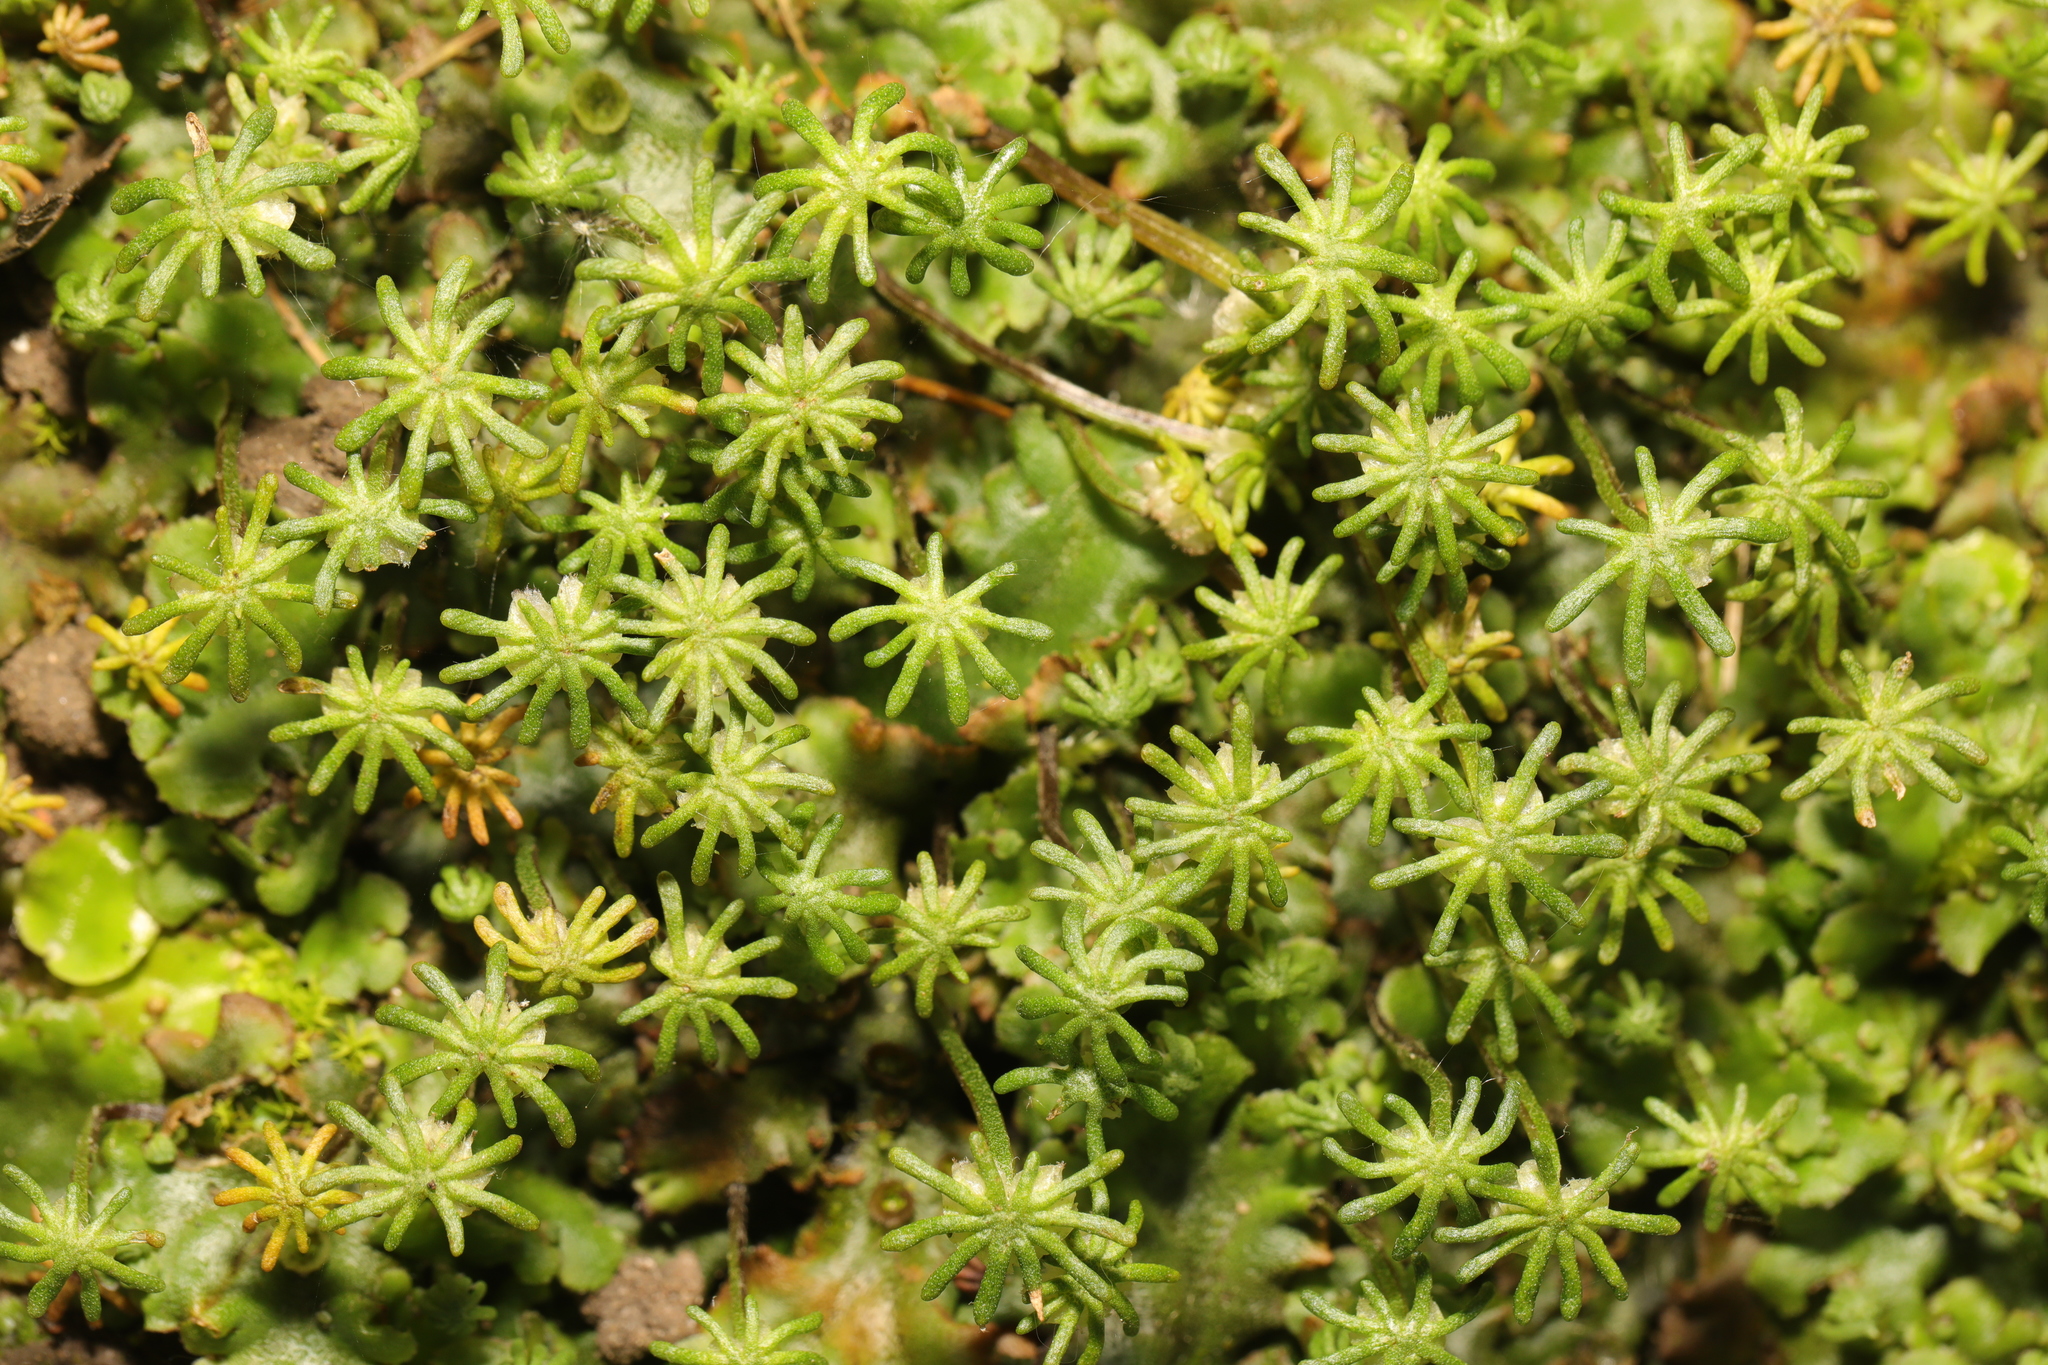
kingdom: Plantae
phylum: Marchantiophyta
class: Marchantiopsida
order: Marchantiales
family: Marchantiaceae
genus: Marchantia
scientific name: Marchantia polymorpha
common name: Common liverwort
